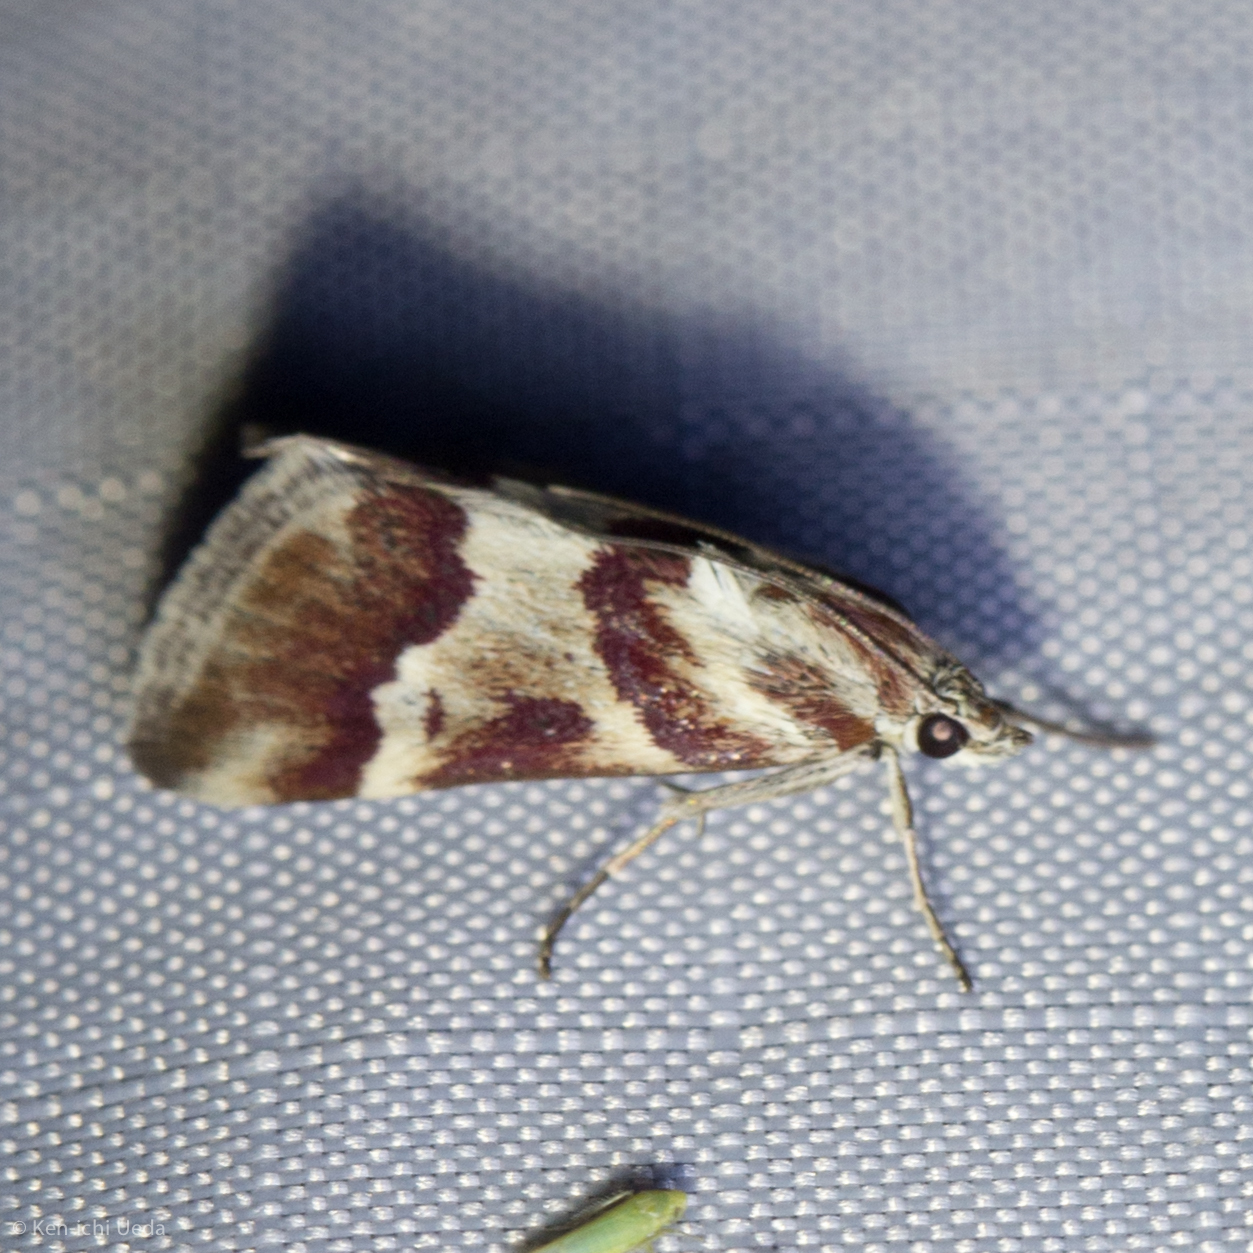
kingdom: Animalia
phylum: Arthropoda
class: Insecta
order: Lepidoptera
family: Crambidae
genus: Noctuelia
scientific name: Noctuelia Mimoschinia rufofascialis
